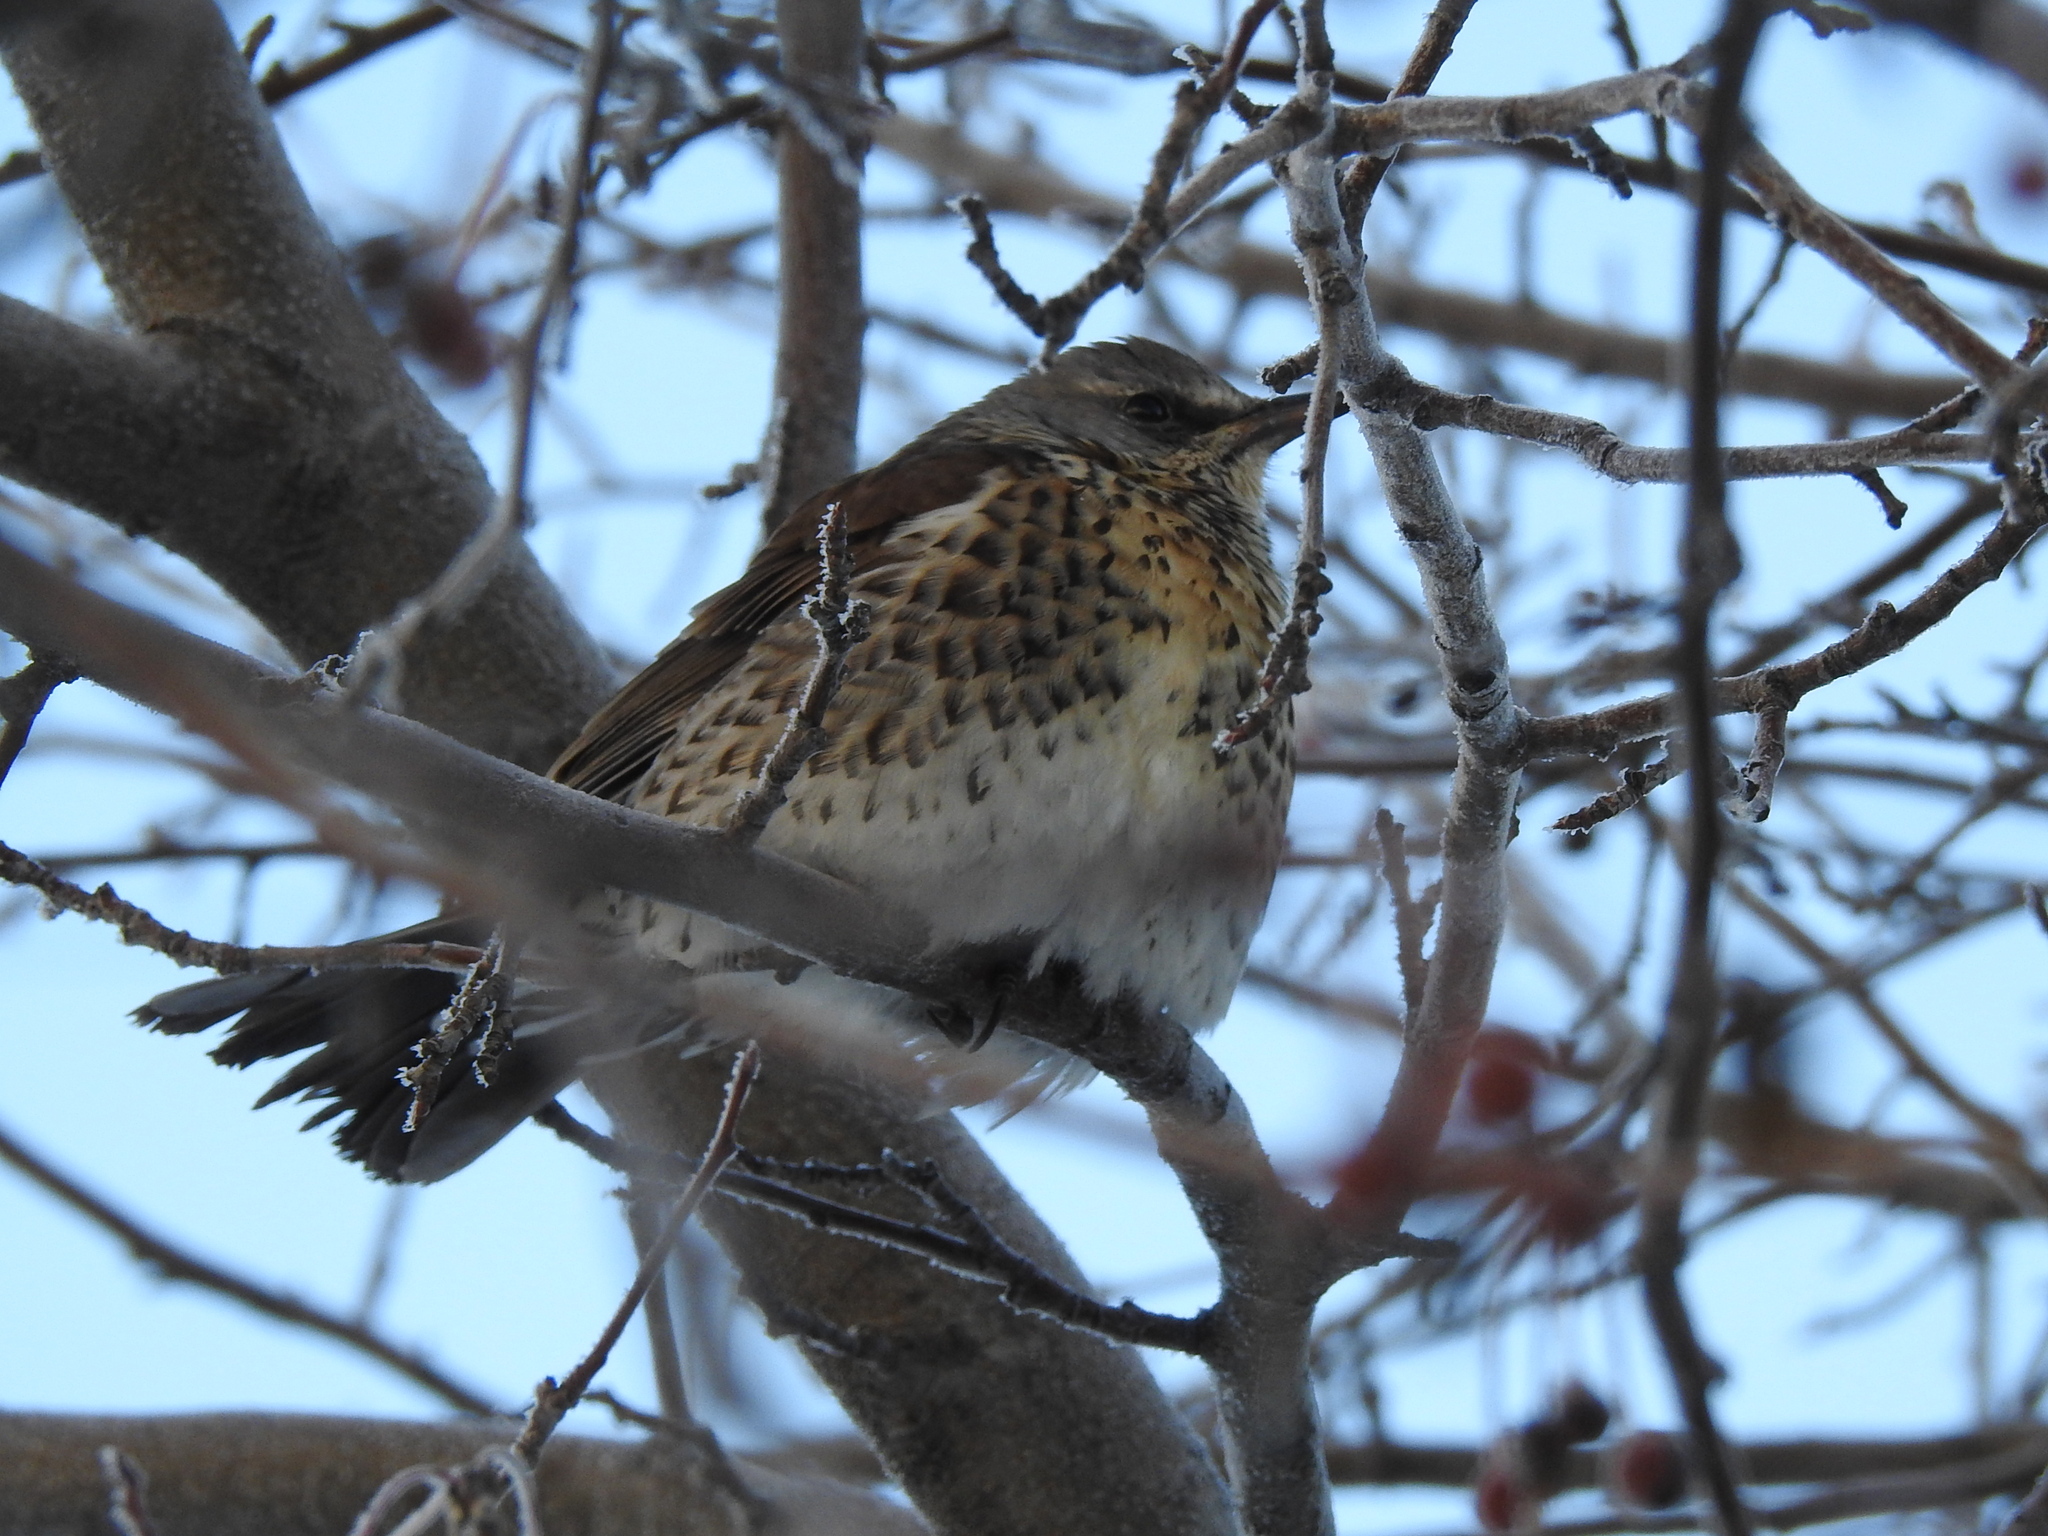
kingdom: Animalia
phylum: Chordata
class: Aves
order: Passeriformes
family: Turdidae
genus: Turdus
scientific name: Turdus pilaris
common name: Fieldfare
